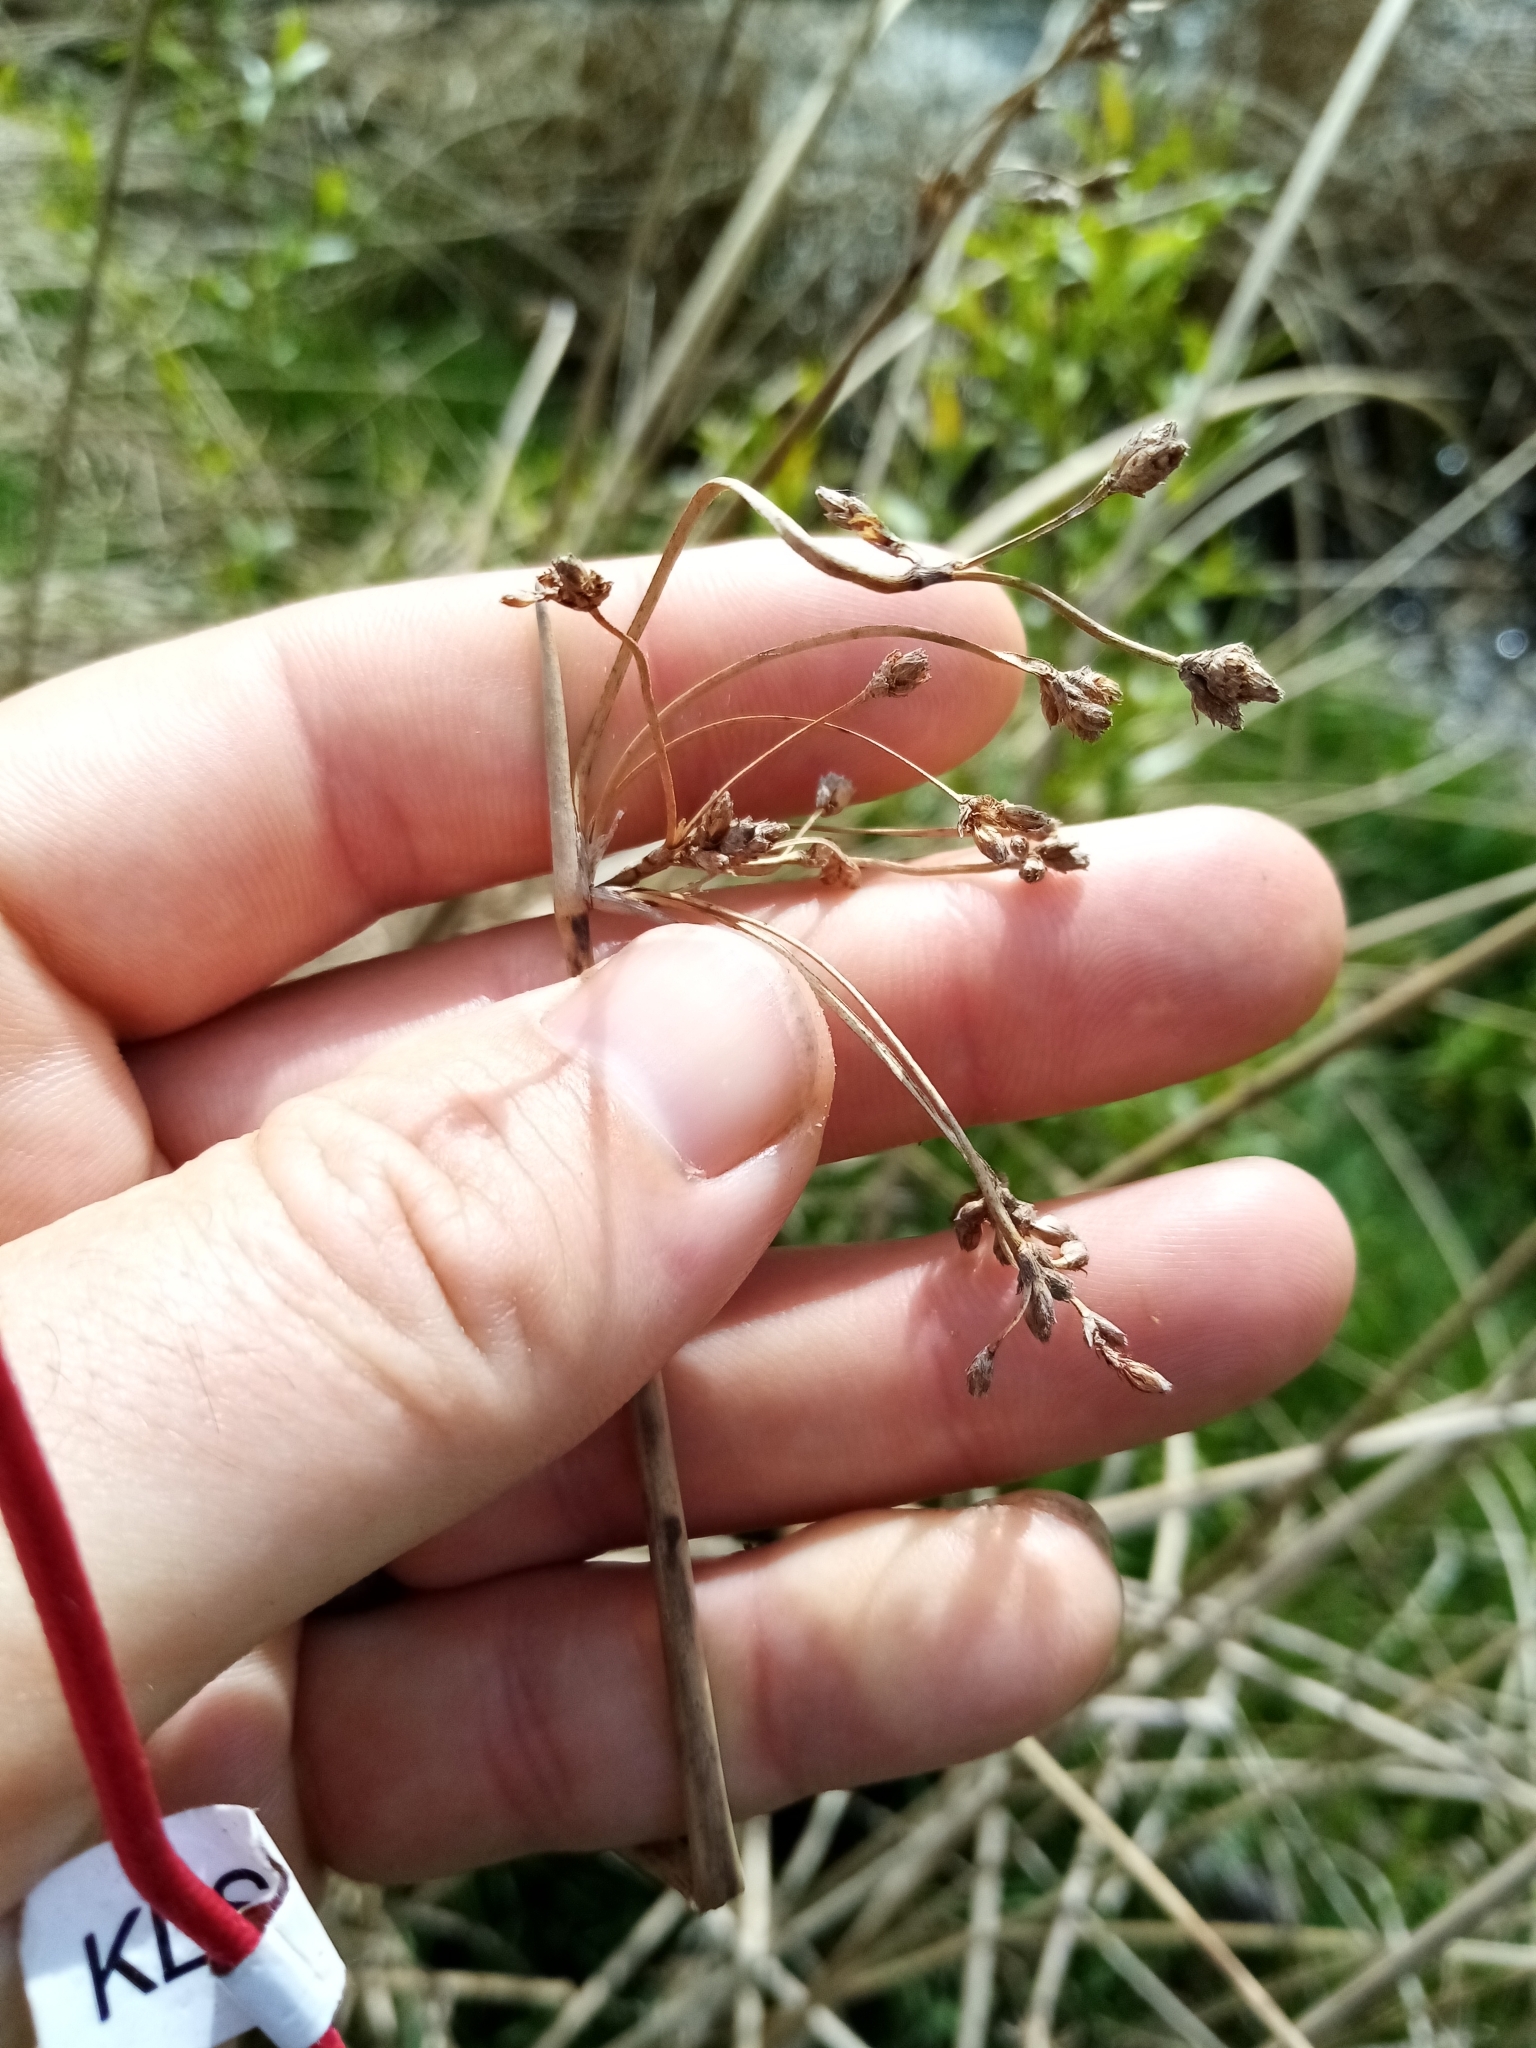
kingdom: Plantae
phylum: Tracheophyta
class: Liliopsida
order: Poales
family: Cyperaceae
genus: Schoenoplectus
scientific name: Schoenoplectus tabernaemontani
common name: Grey club-rush
